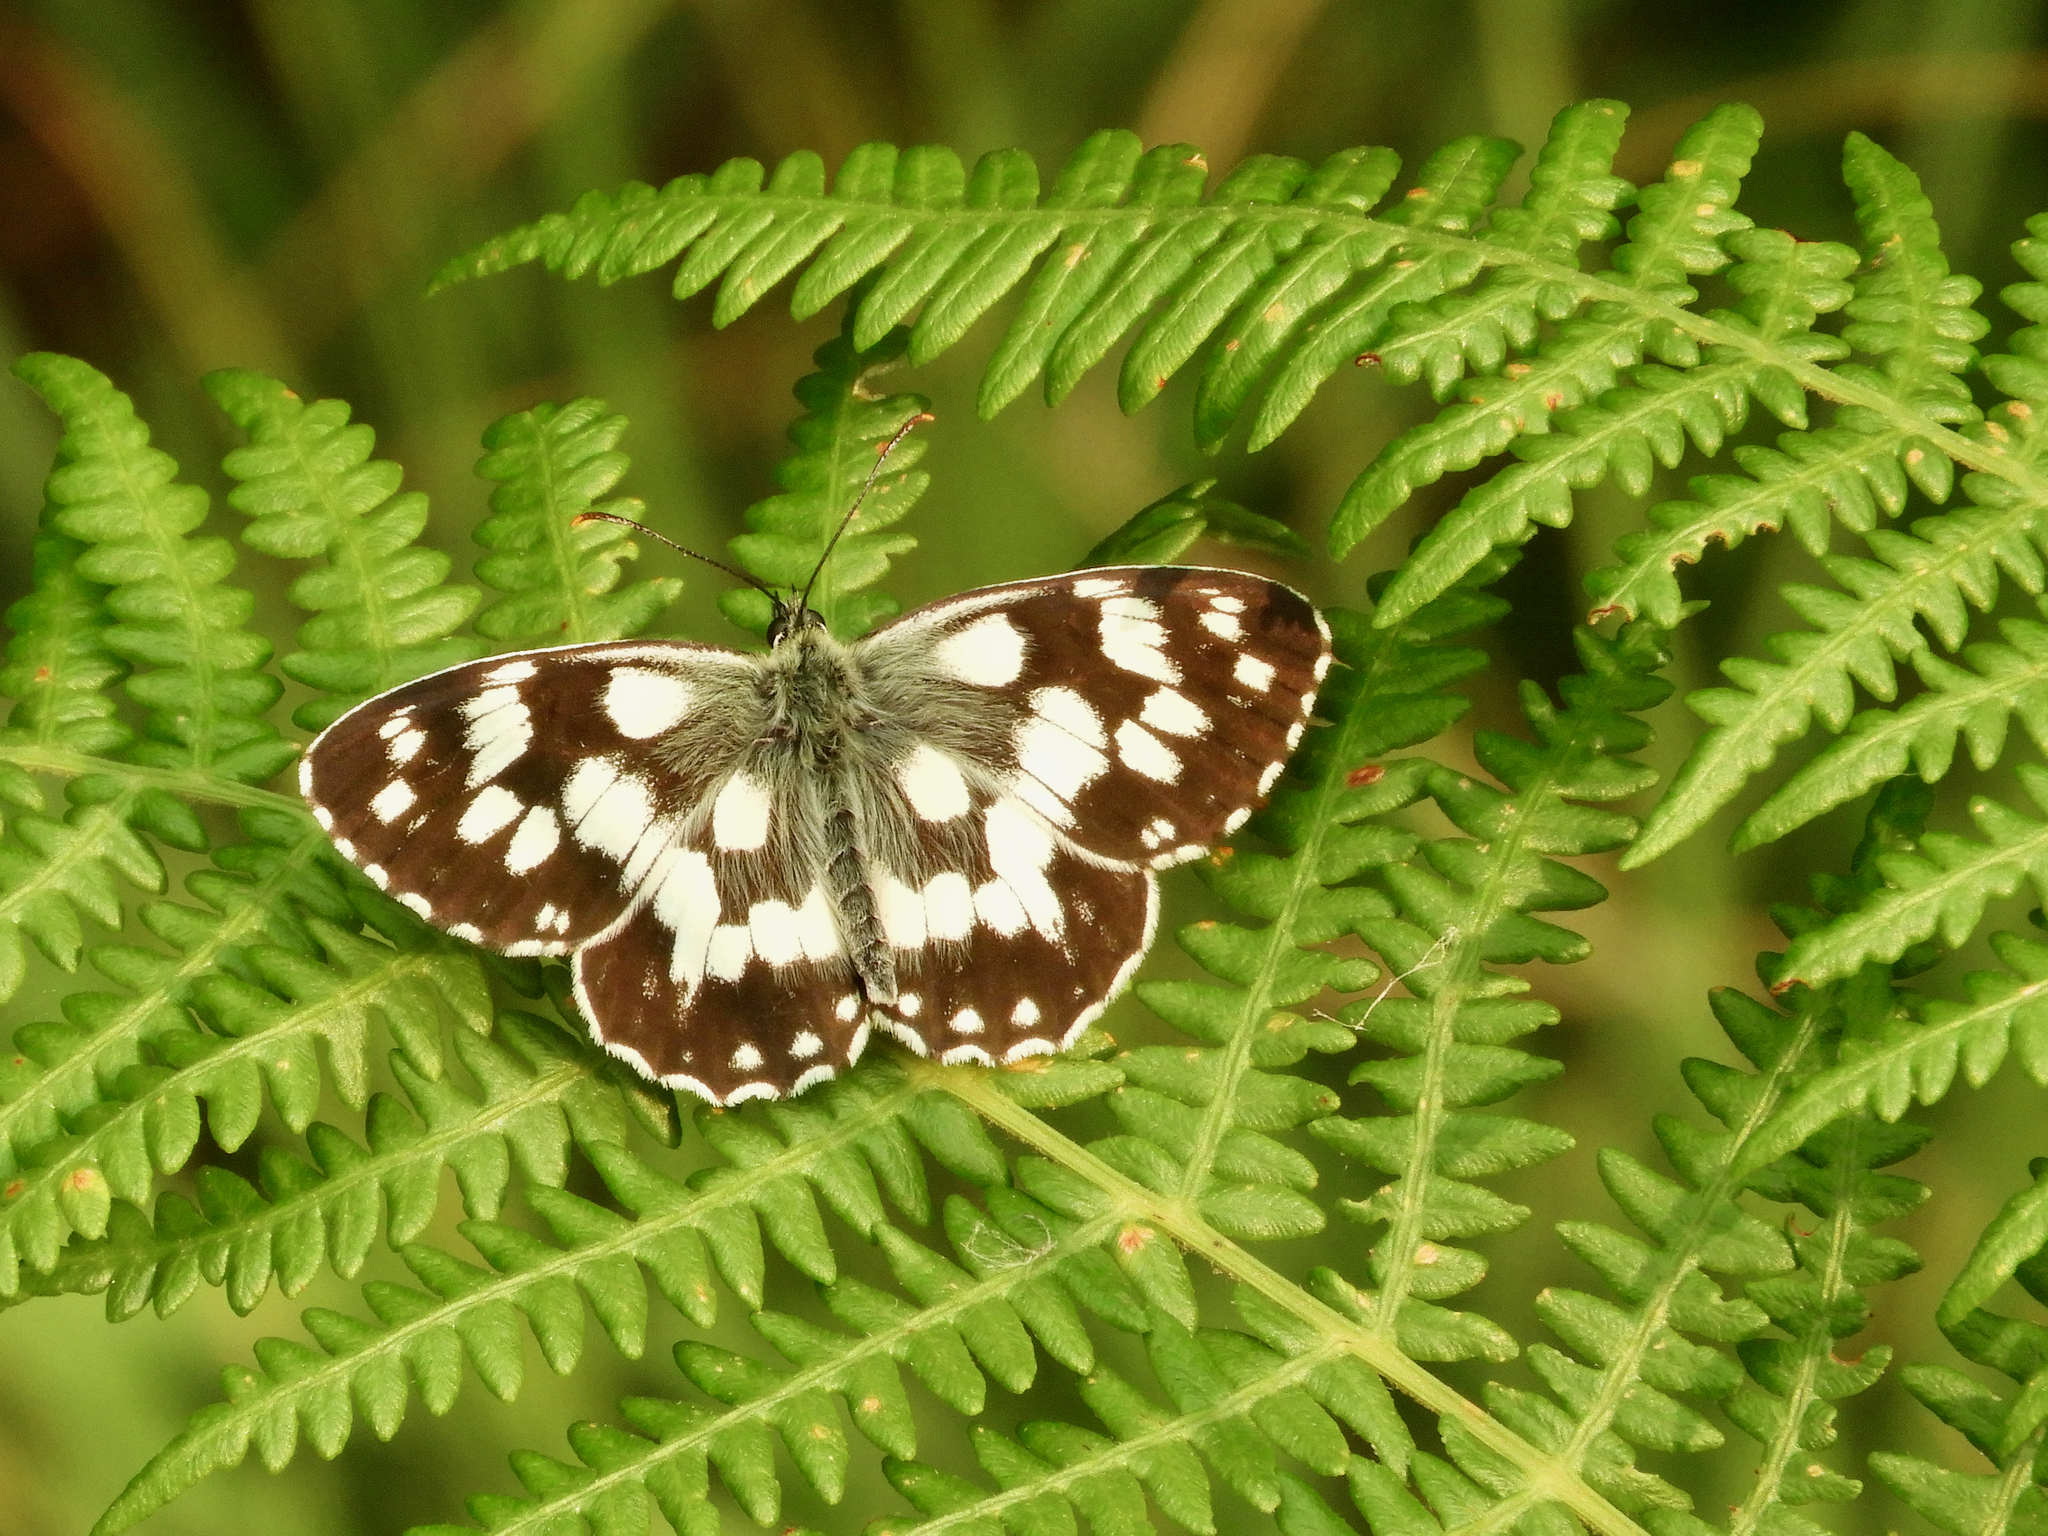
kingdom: Animalia
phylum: Arthropoda
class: Insecta
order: Lepidoptera
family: Nymphalidae
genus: Melanargia
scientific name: Melanargia galathea
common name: Marbled white
